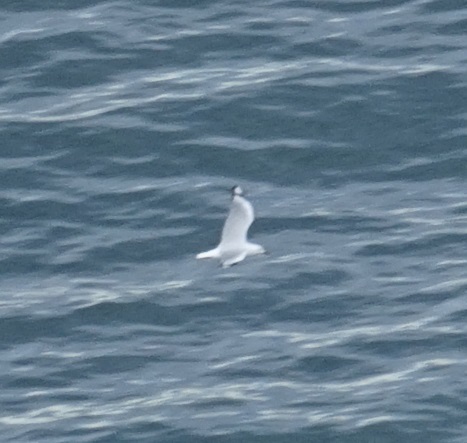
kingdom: Animalia
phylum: Chordata
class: Aves
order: Charadriiformes
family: Laridae
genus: Chroicocephalus
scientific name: Chroicocephalus novaehollandiae
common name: Silver gull
